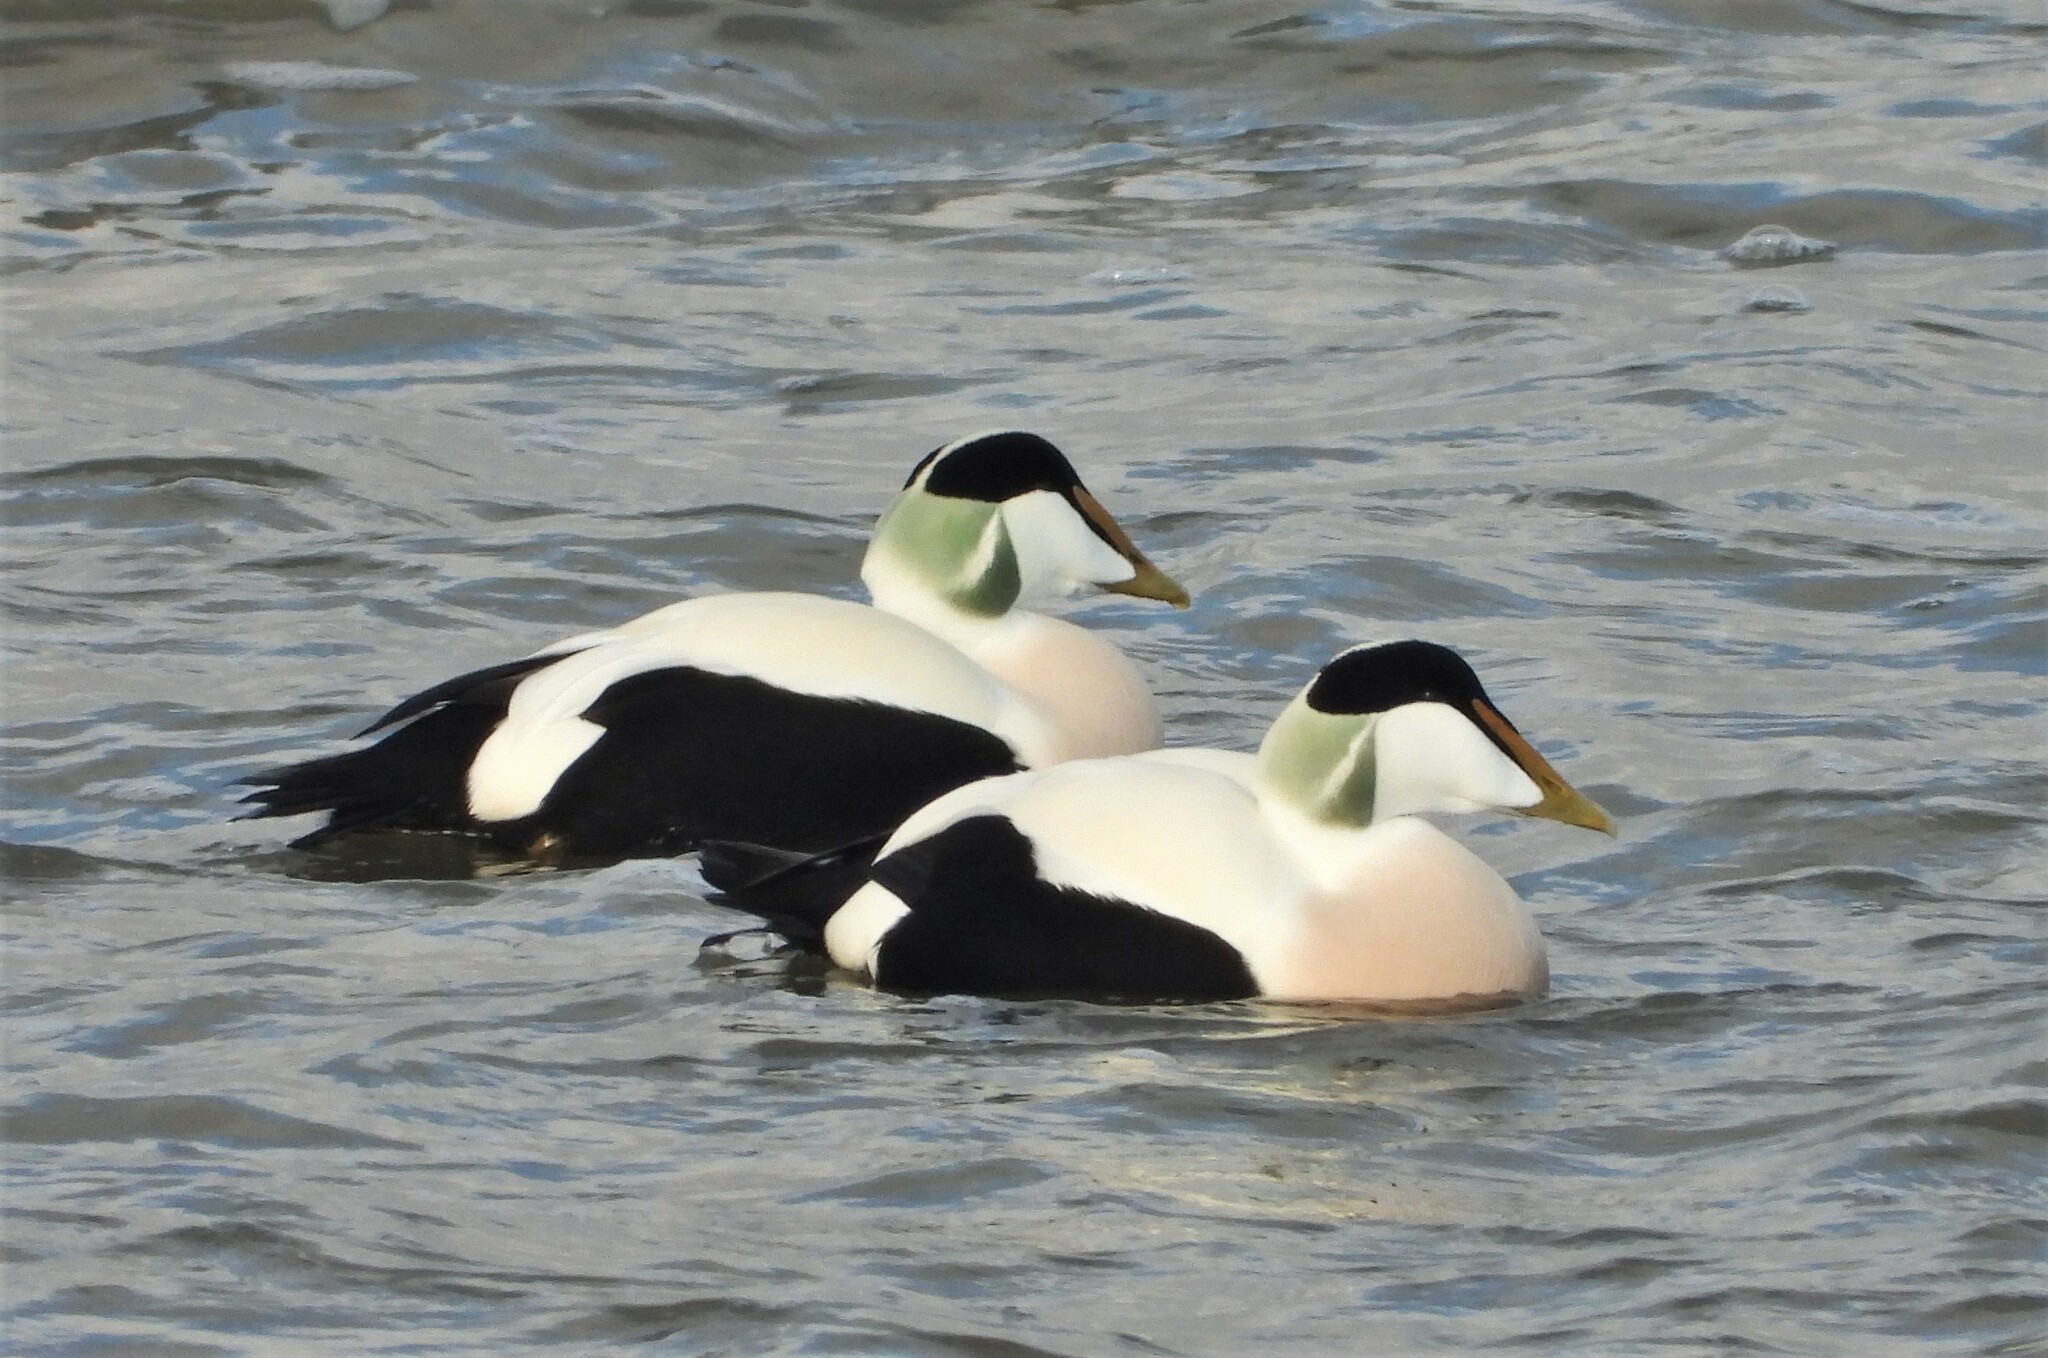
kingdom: Animalia
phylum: Chordata
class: Aves
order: Anseriformes
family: Anatidae
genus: Somateria
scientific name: Somateria mollissima
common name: Common eider
